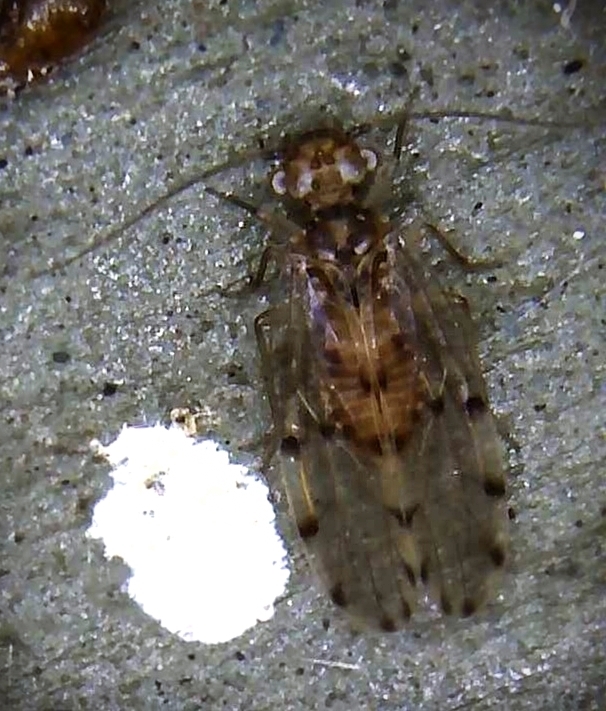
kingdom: Animalia
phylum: Arthropoda
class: Insecta
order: Psocodea
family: Ectopsocidae
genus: Ectopsocus
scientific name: Ectopsocus petersi
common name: Medium-sized bark louse
